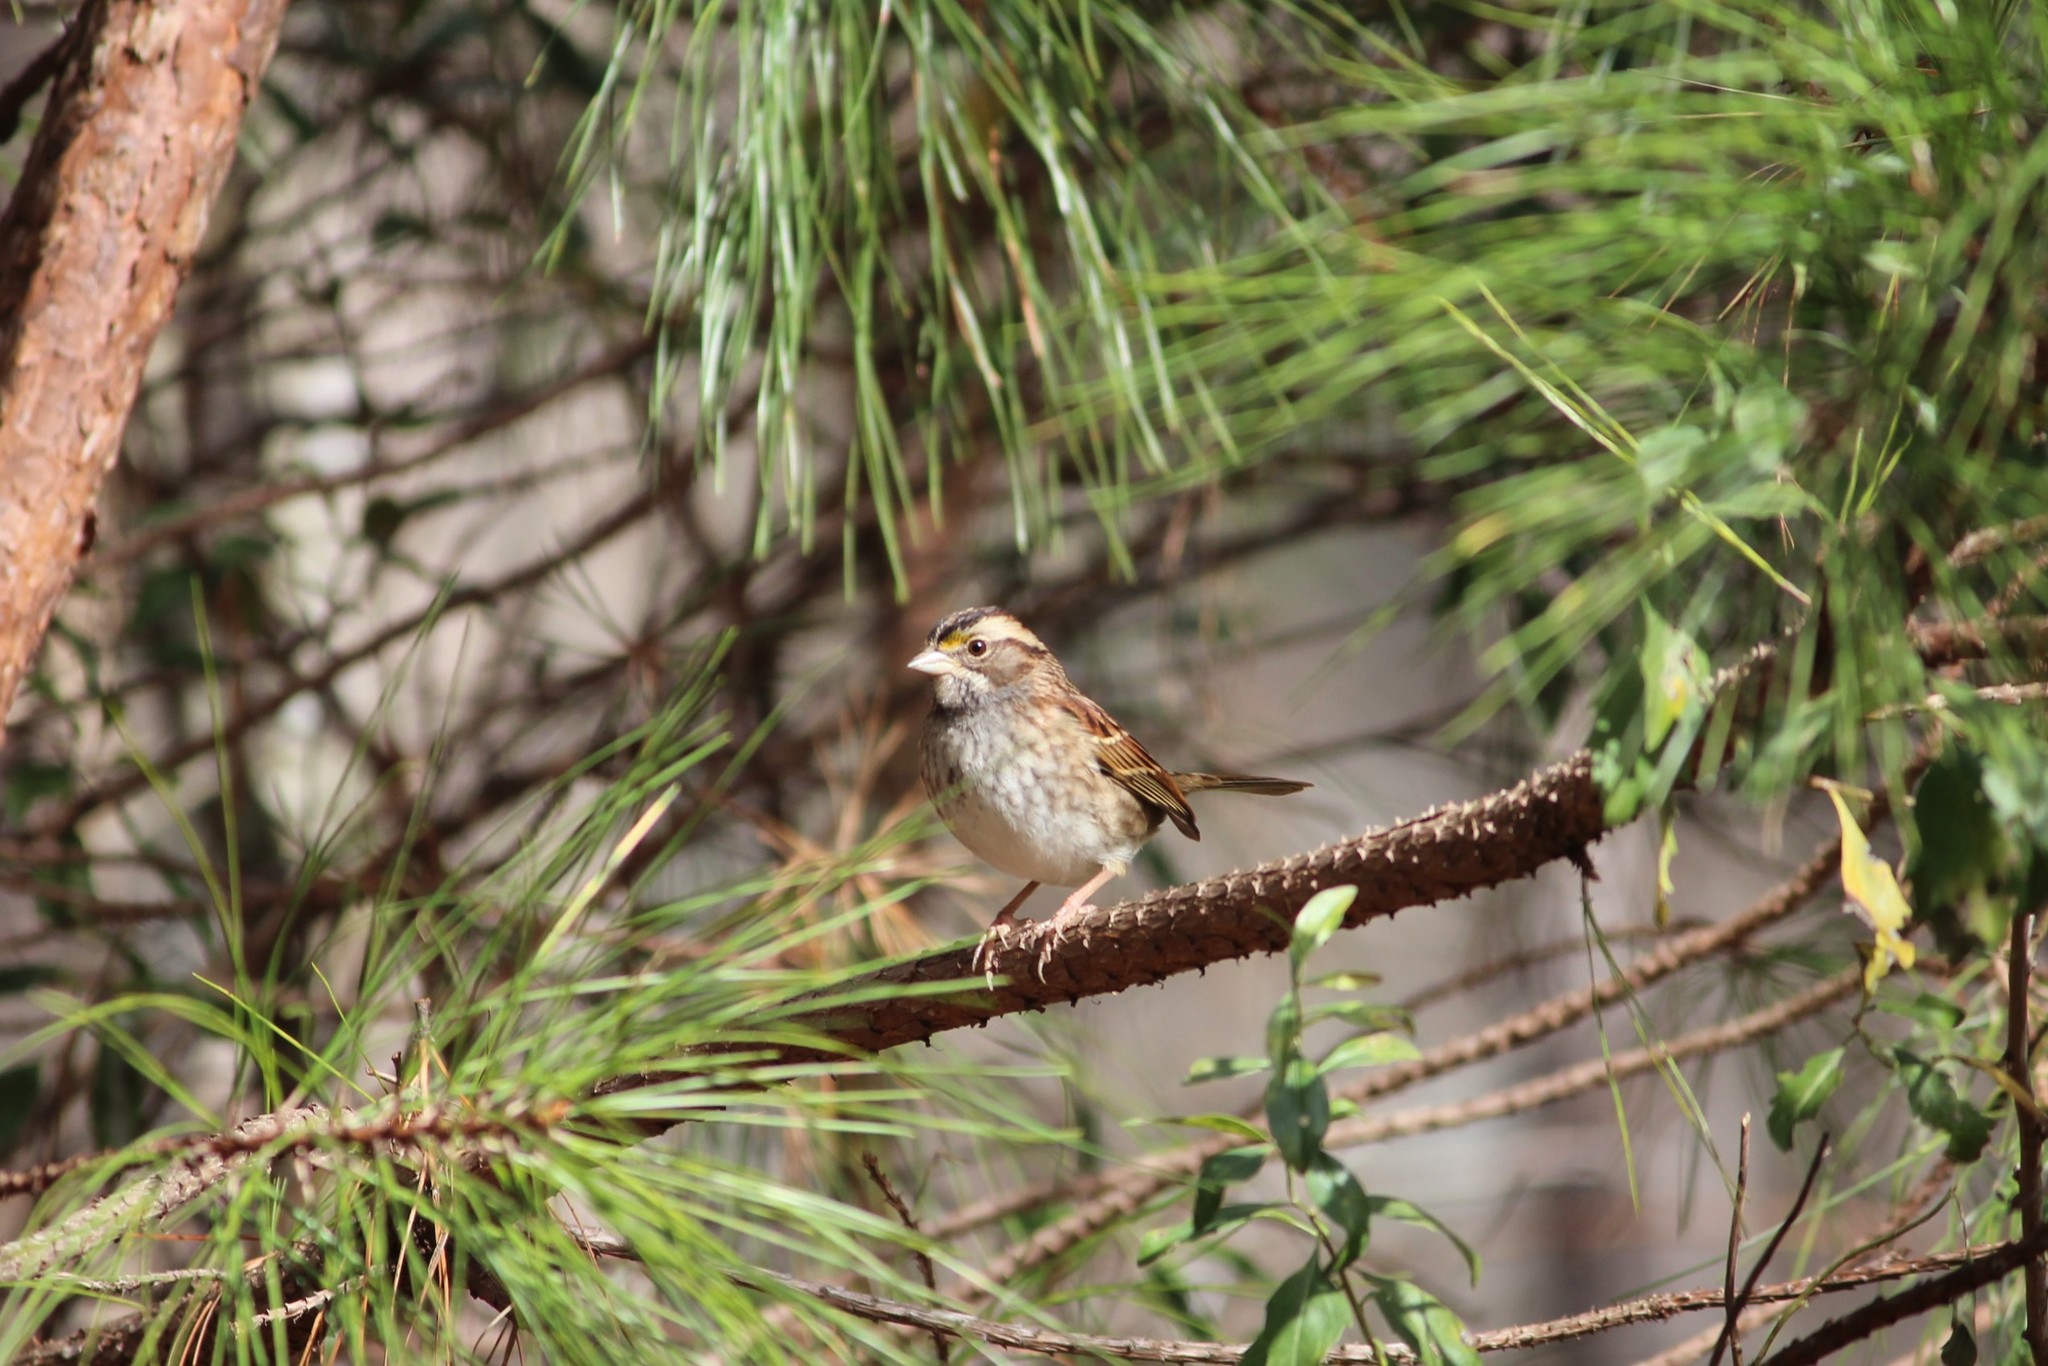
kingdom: Animalia
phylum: Chordata
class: Aves
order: Passeriformes
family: Passerellidae
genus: Zonotrichia
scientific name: Zonotrichia albicollis
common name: White-throated sparrow
